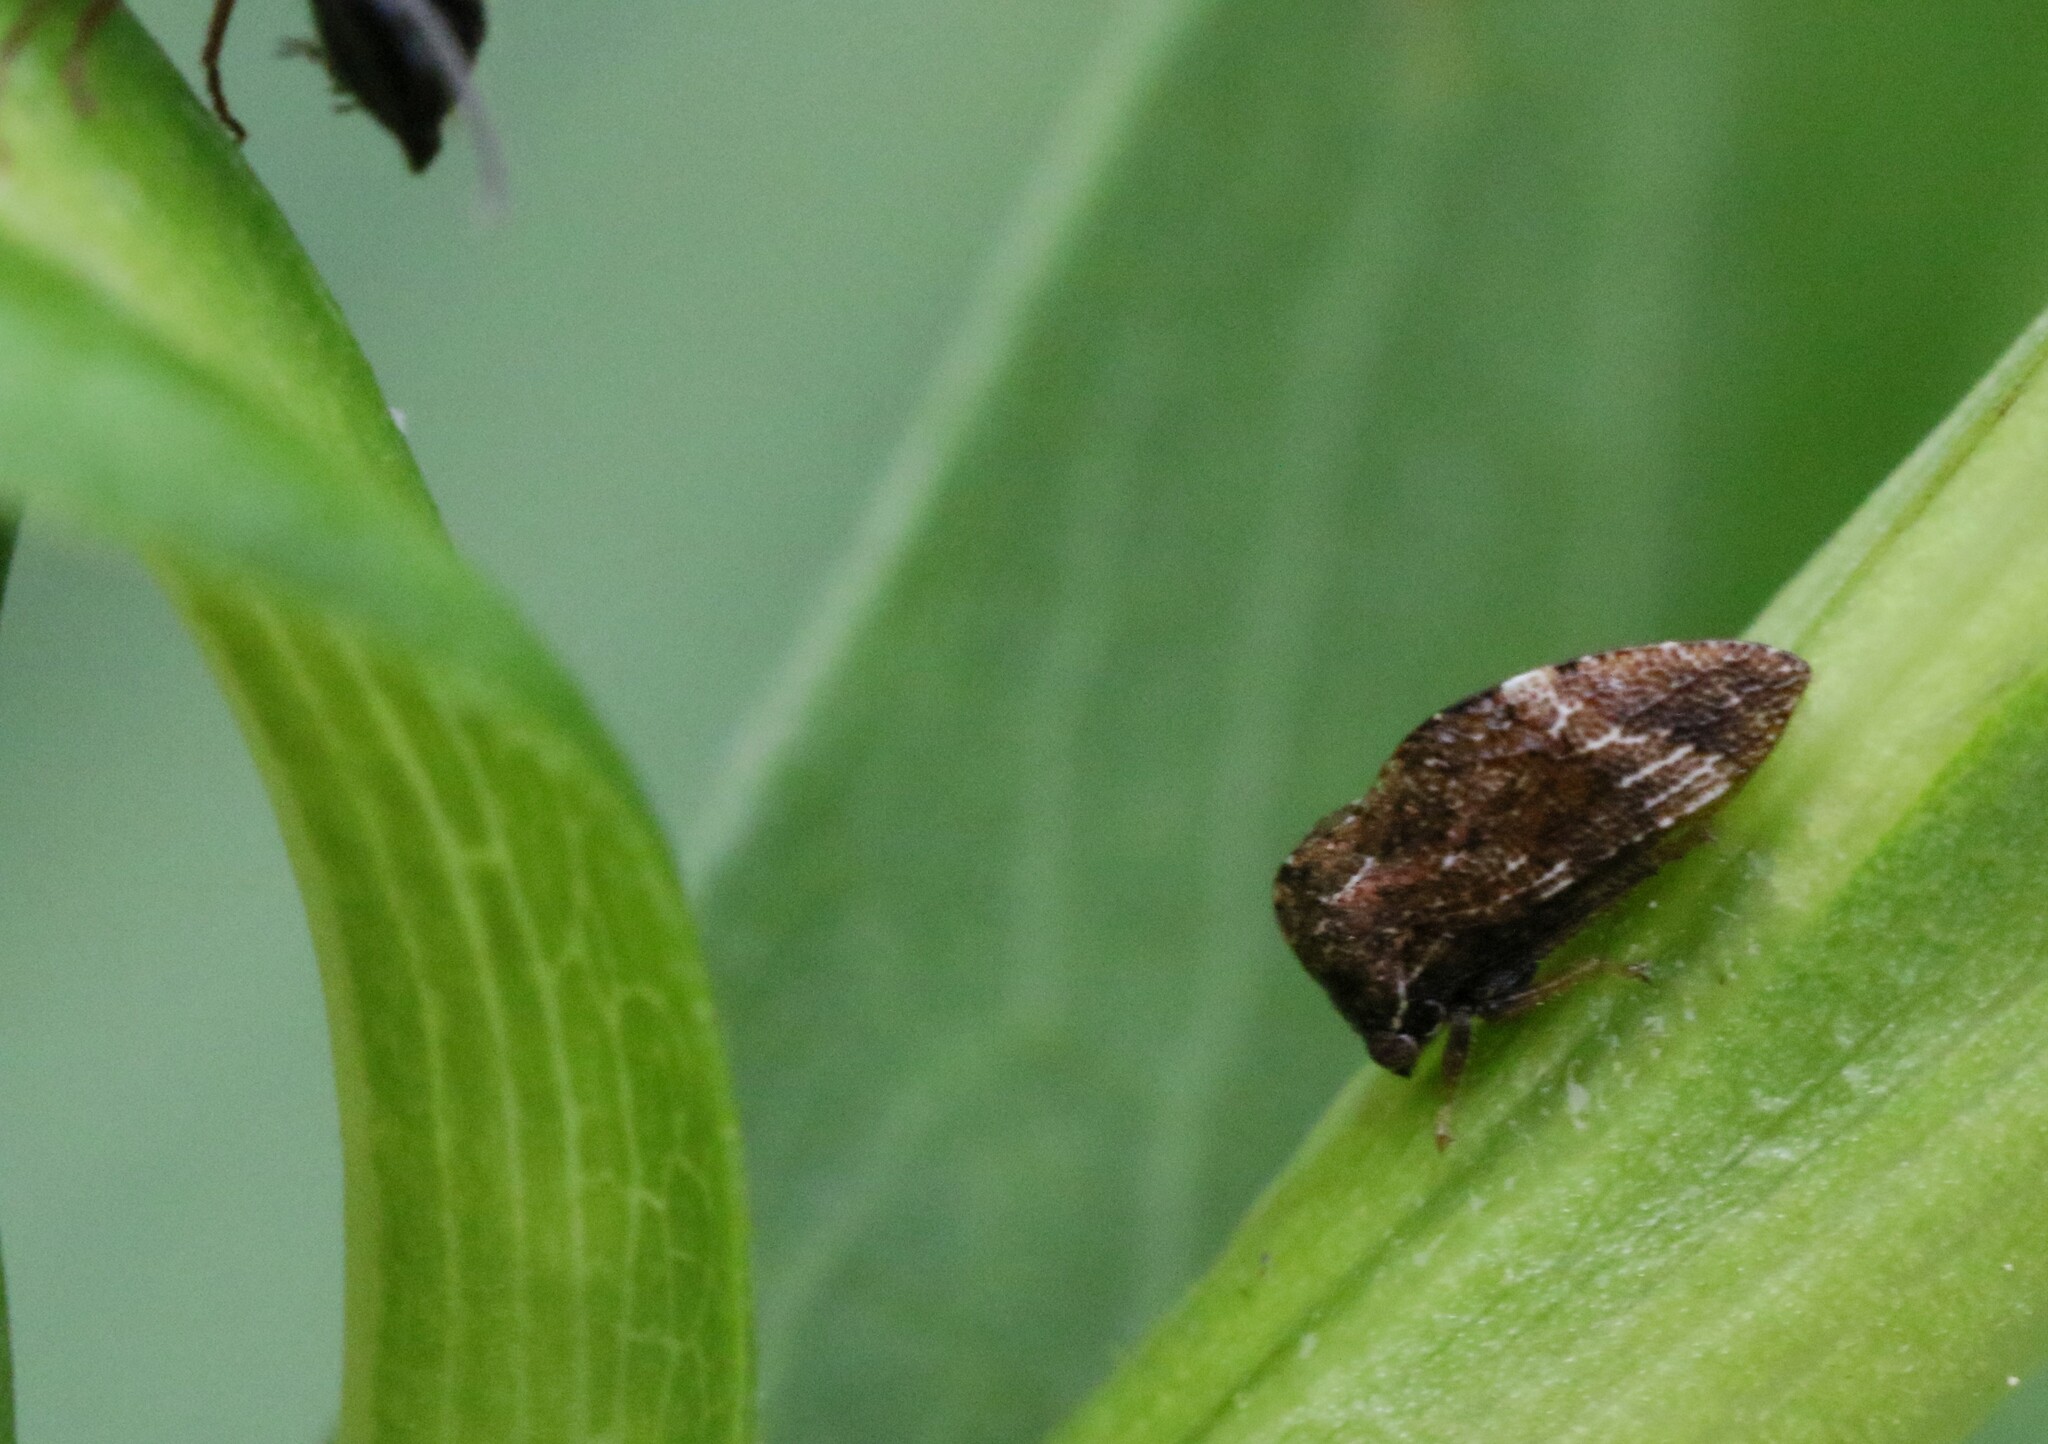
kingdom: Animalia
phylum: Arthropoda
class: Insecta
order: Hemiptera
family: Membracidae
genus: Publilia
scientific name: Publilia concava
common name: Aster treehopper
